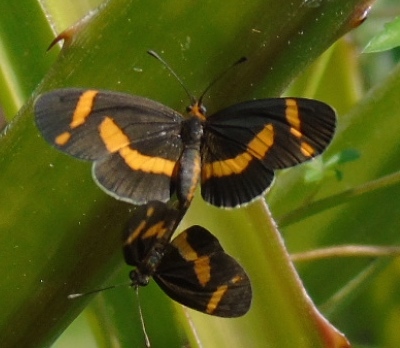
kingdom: Animalia
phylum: Arthropoda
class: Insecta
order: Lepidoptera
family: Nymphalidae
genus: Microtia
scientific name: Microtia elva
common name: Elf
